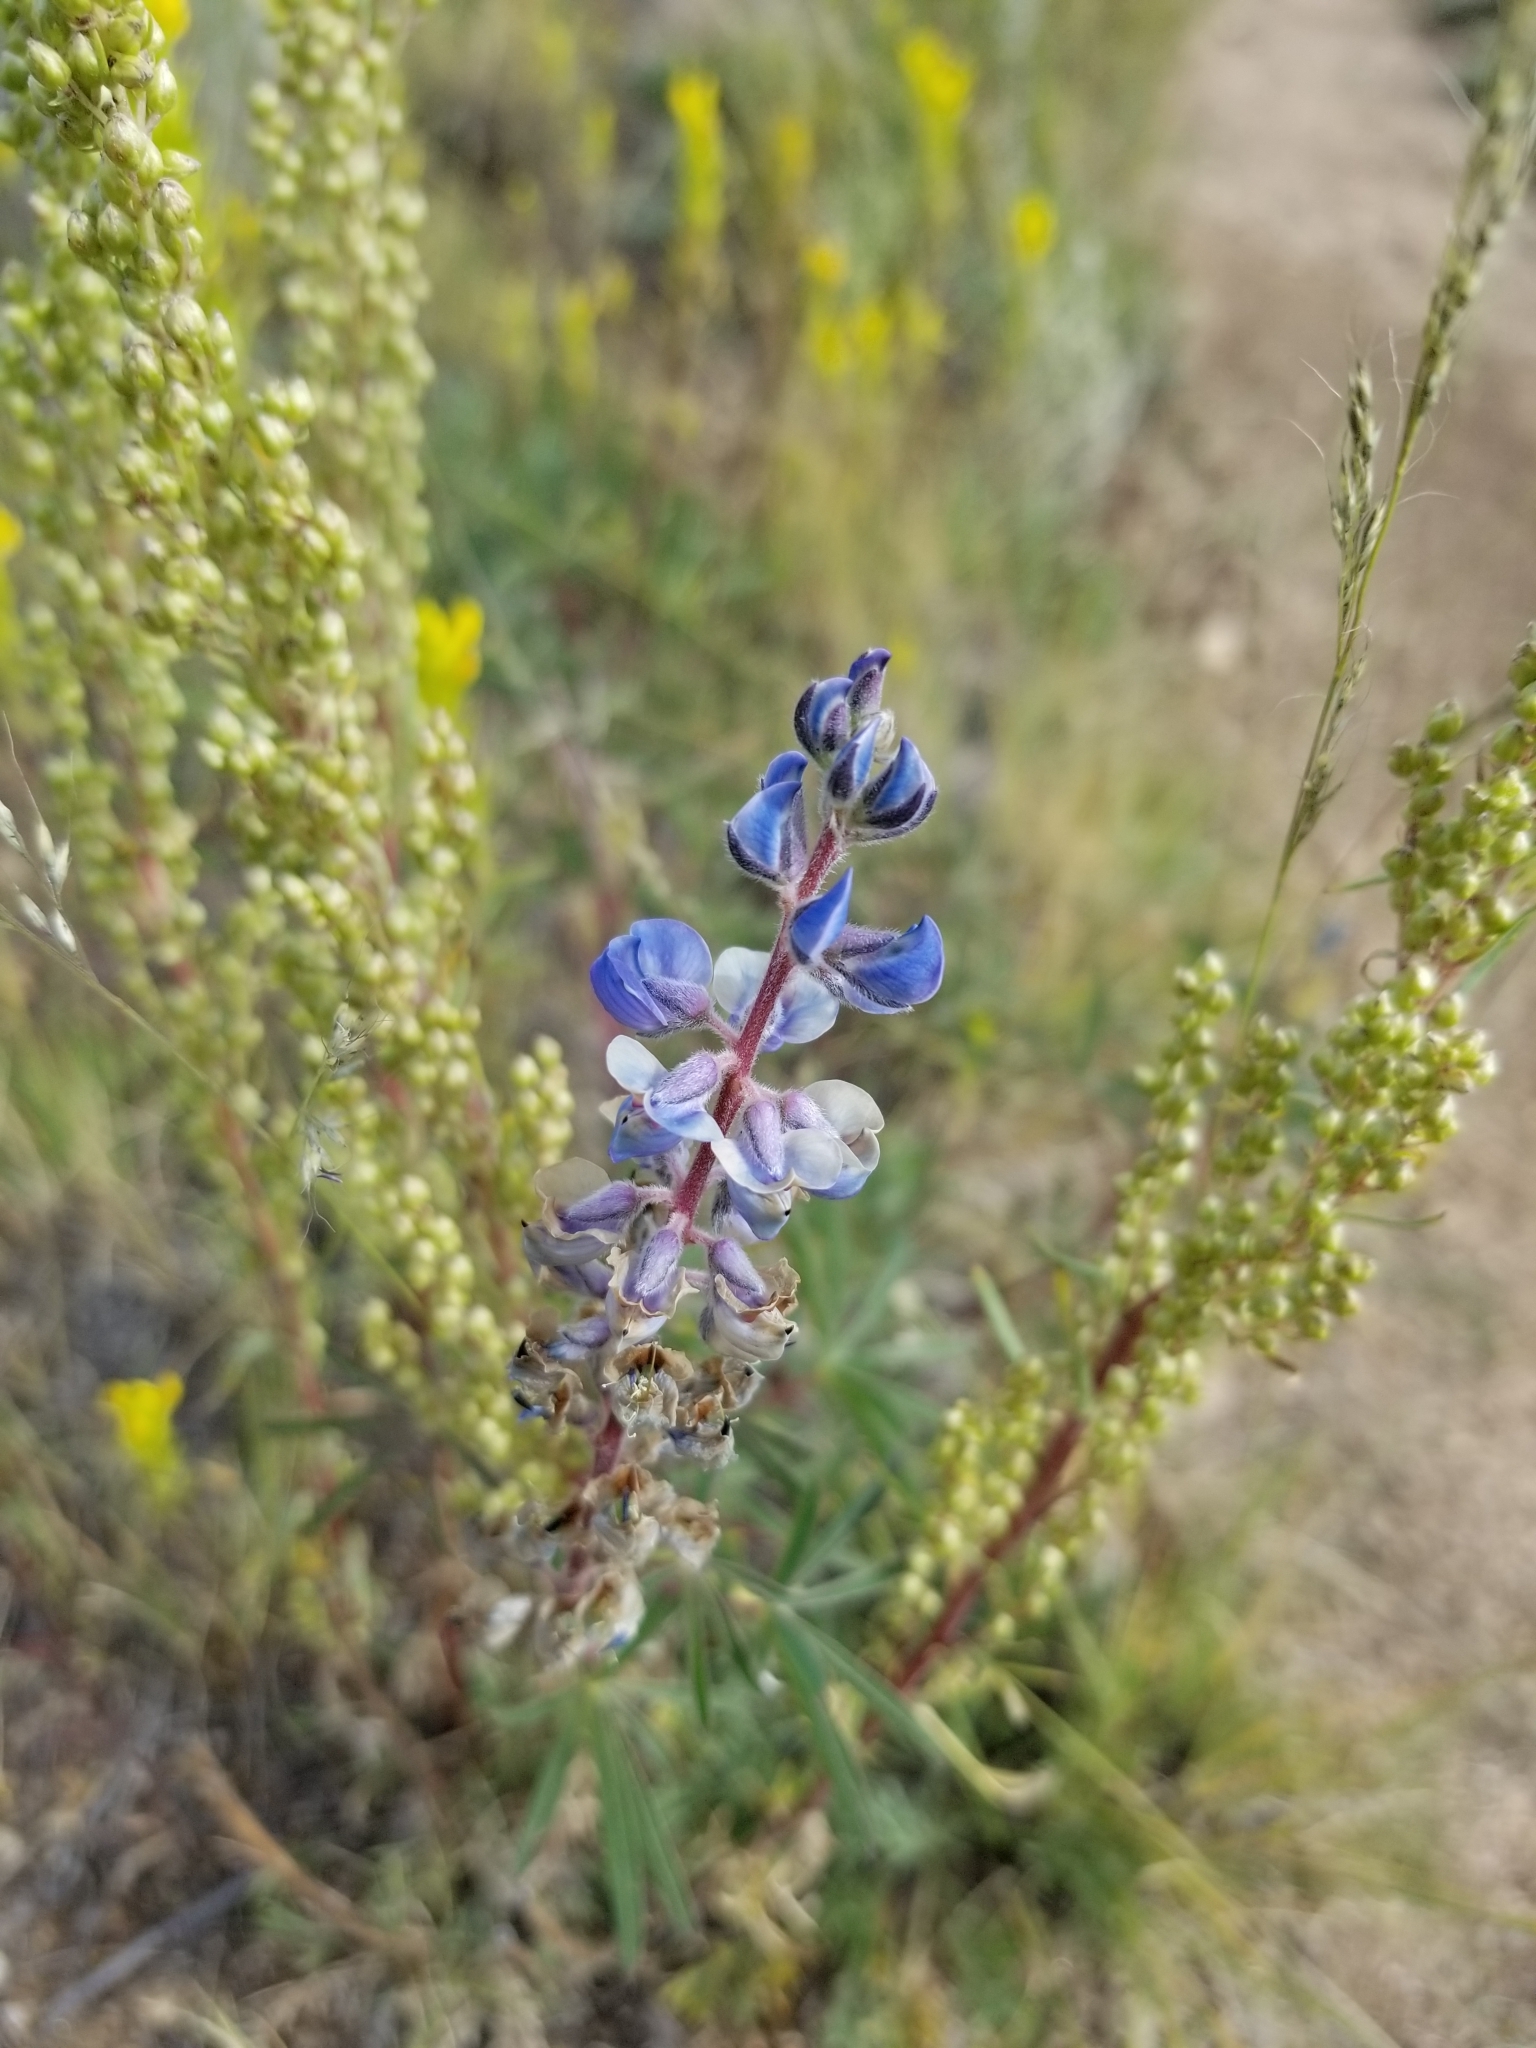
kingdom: Plantae
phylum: Tracheophyta
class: Magnoliopsida
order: Fabales
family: Fabaceae
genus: Lupinus
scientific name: Lupinus argenteus
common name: Silvery lupine
